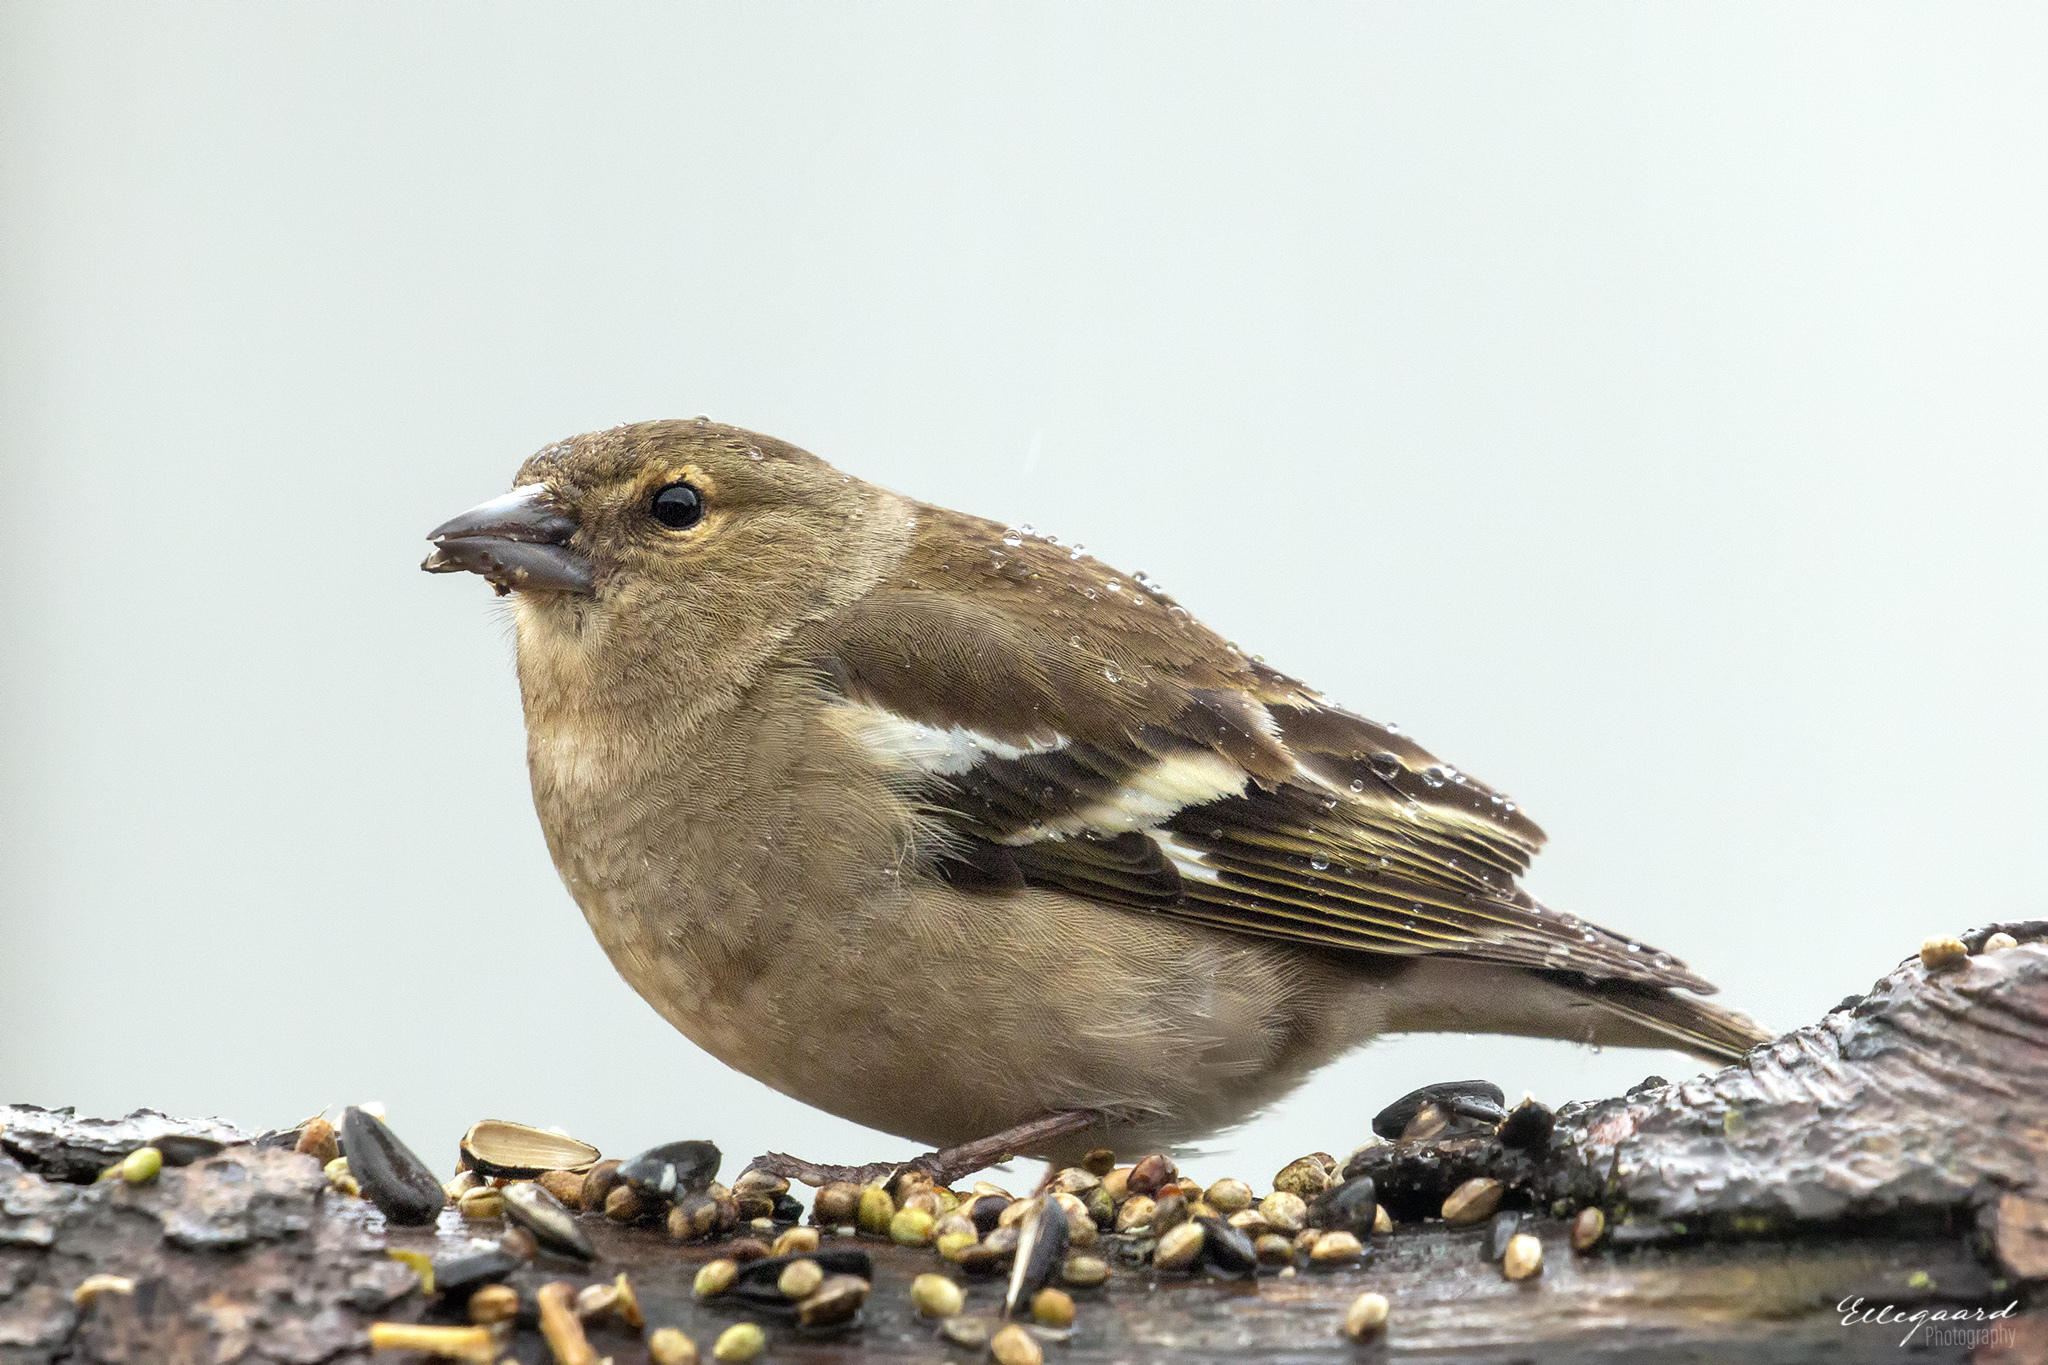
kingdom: Animalia
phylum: Chordata
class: Aves
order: Passeriformes
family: Fringillidae
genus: Fringilla
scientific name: Fringilla coelebs
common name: Common chaffinch
